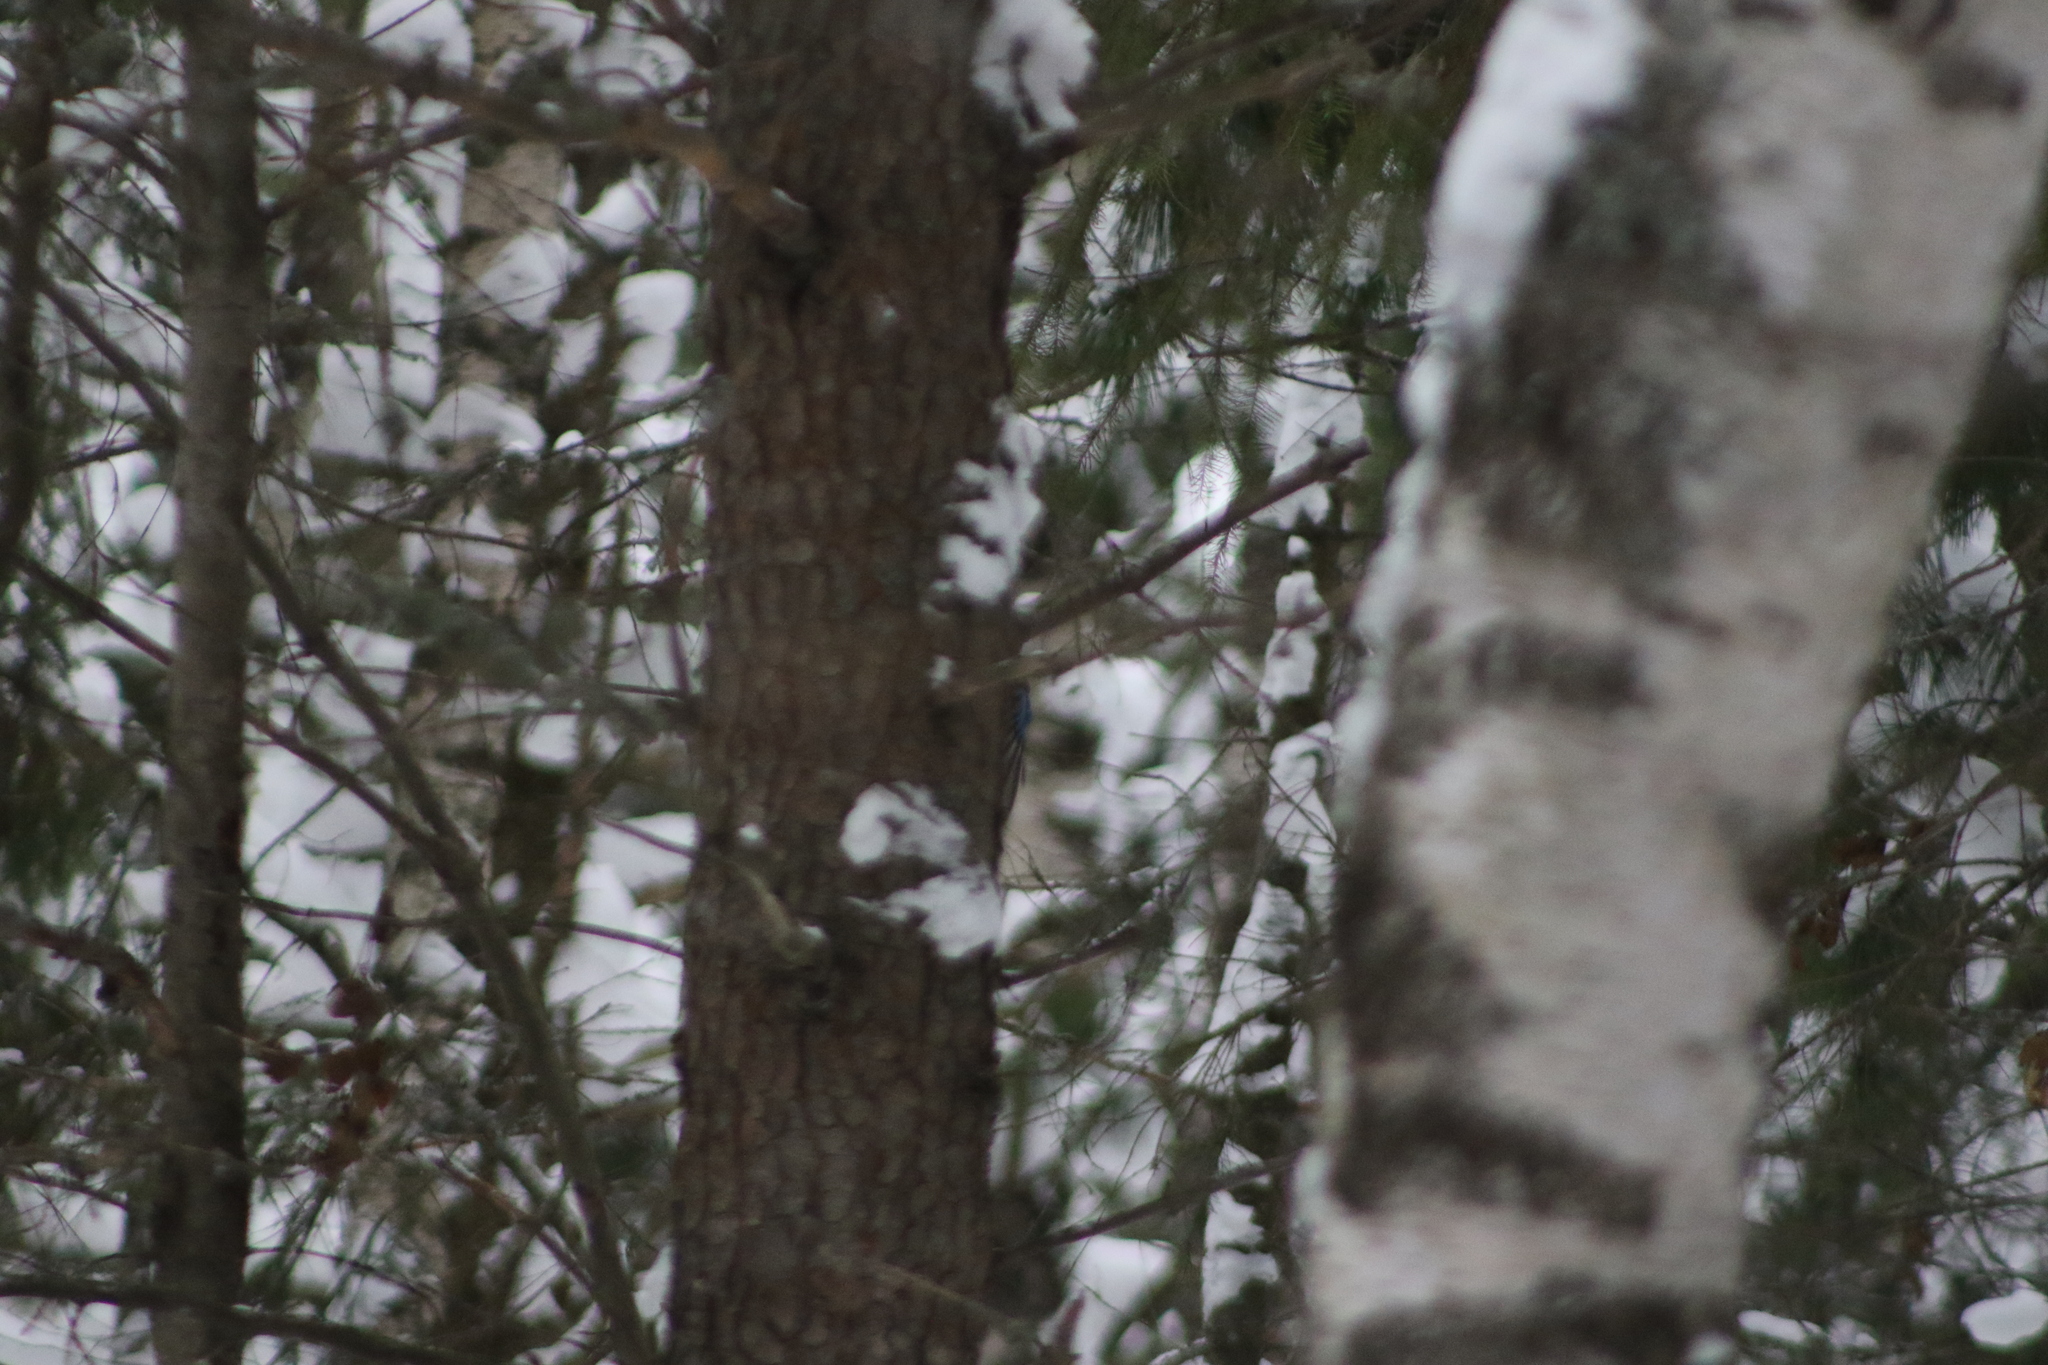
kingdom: Animalia
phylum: Chordata
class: Aves
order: Passeriformes
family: Corvidae
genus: Garrulus
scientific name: Garrulus glandarius
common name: Eurasian jay
